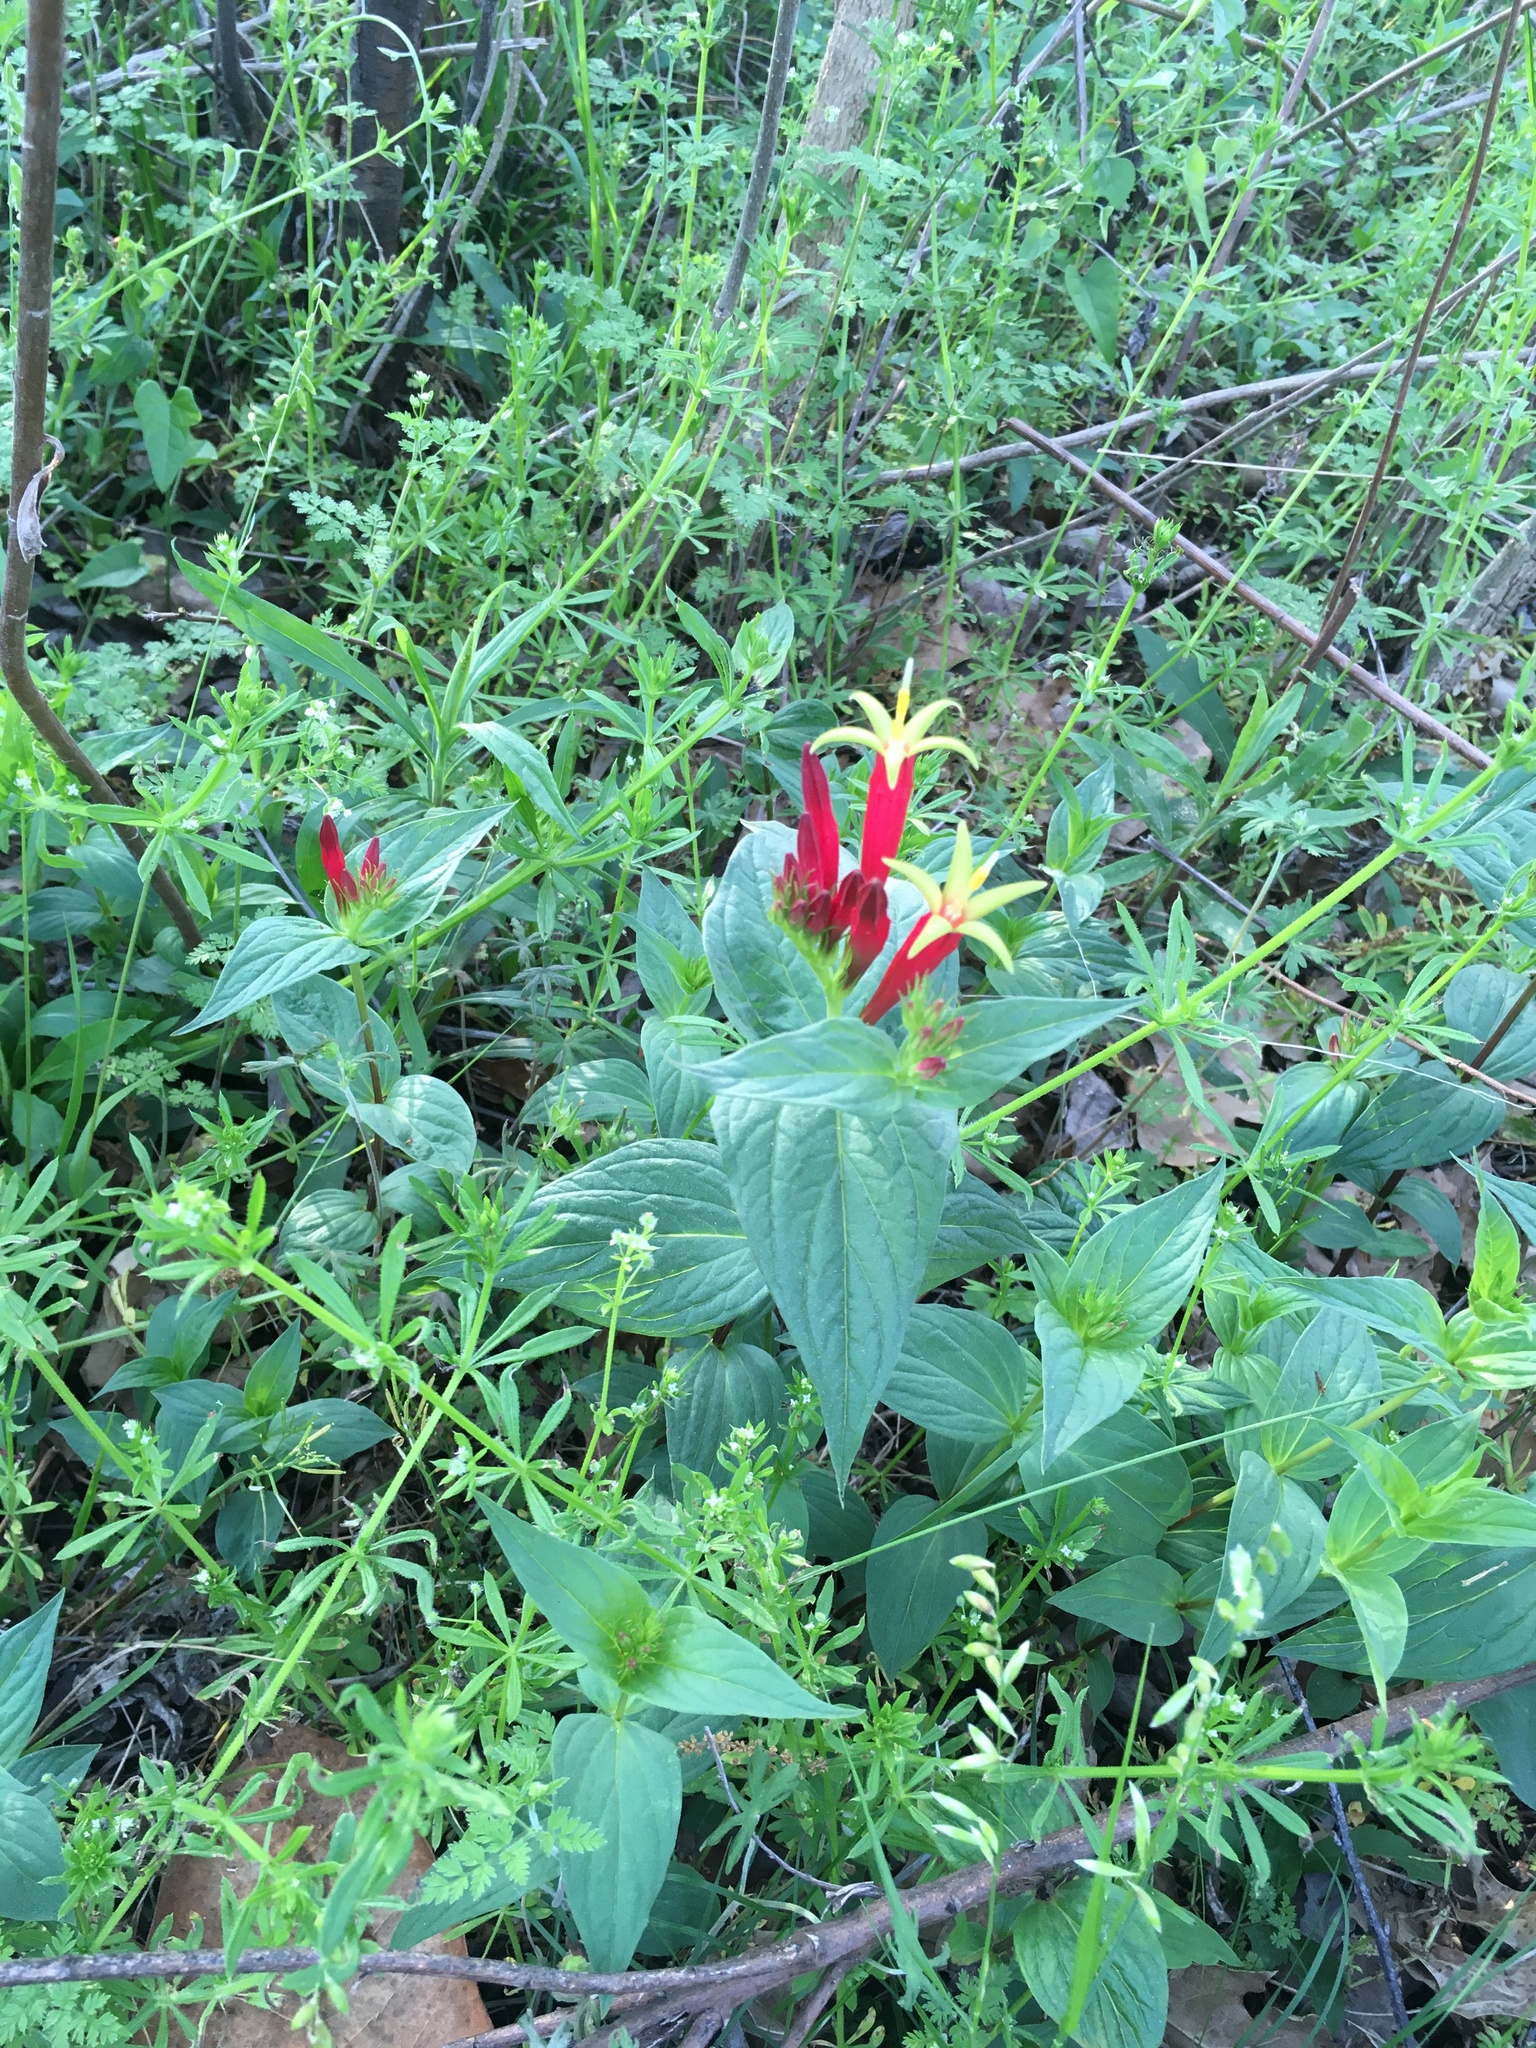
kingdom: Plantae
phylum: Tracheophyta
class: Magnoliopsida
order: Gentianales
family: Loganiaceae
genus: Spigelia
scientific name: Spigelia marilandica
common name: Indian-pink
